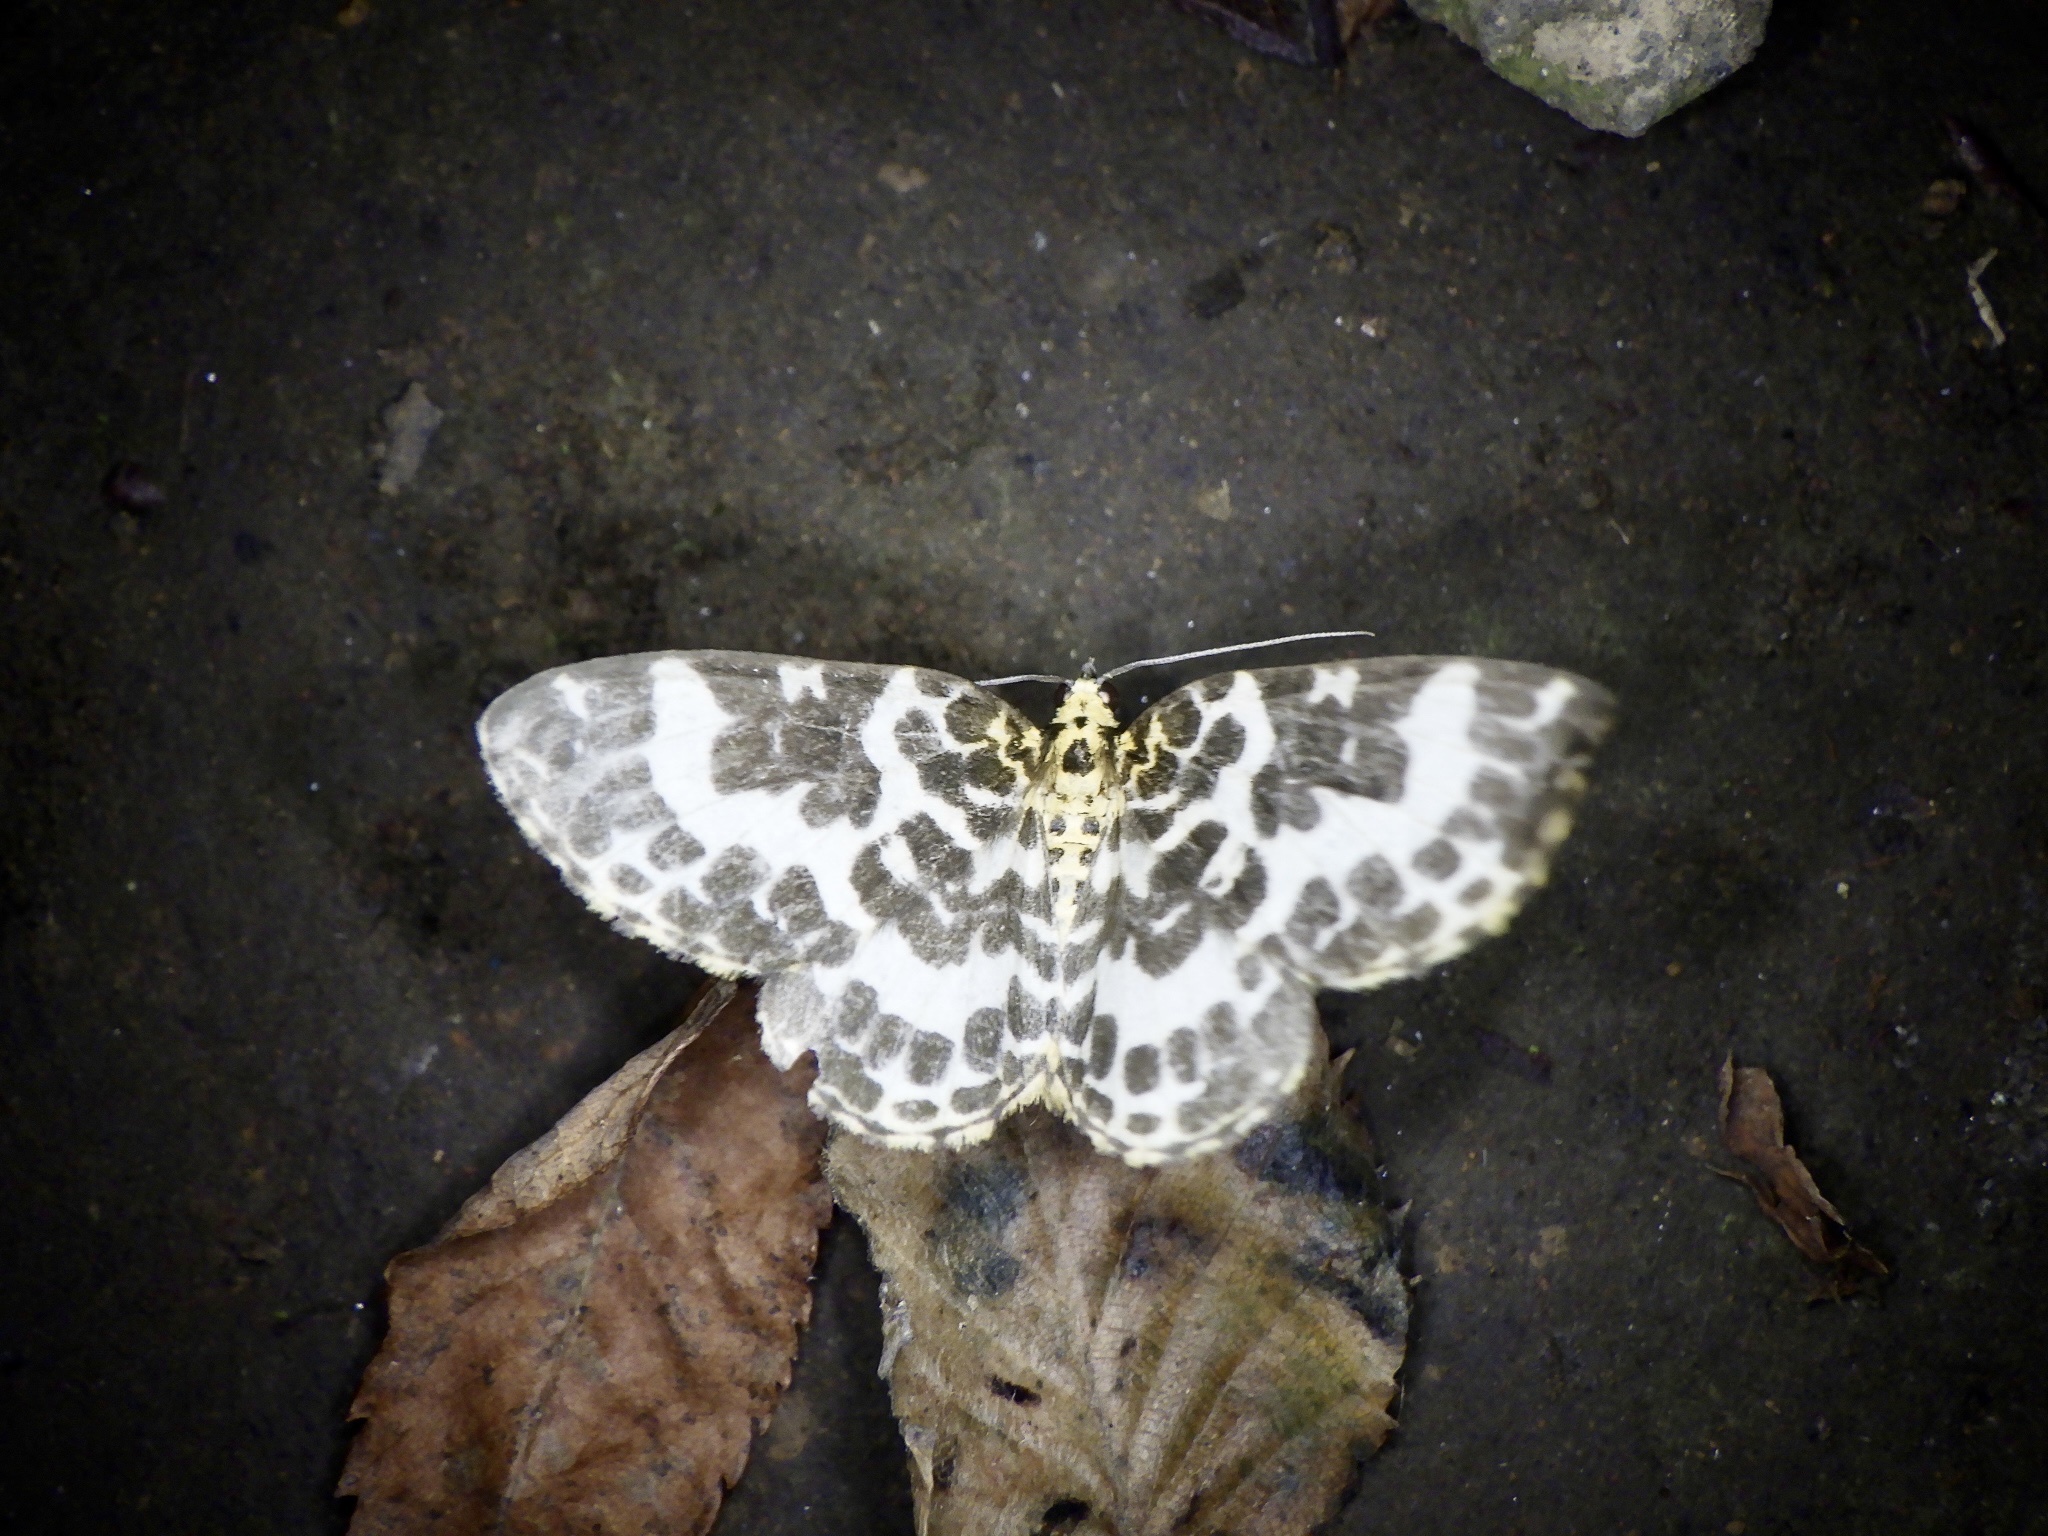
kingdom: Animalia
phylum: Arthropoda
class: Insecta
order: Lepidoptera
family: Geometridae
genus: Gandaritis
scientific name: Gandaritis
